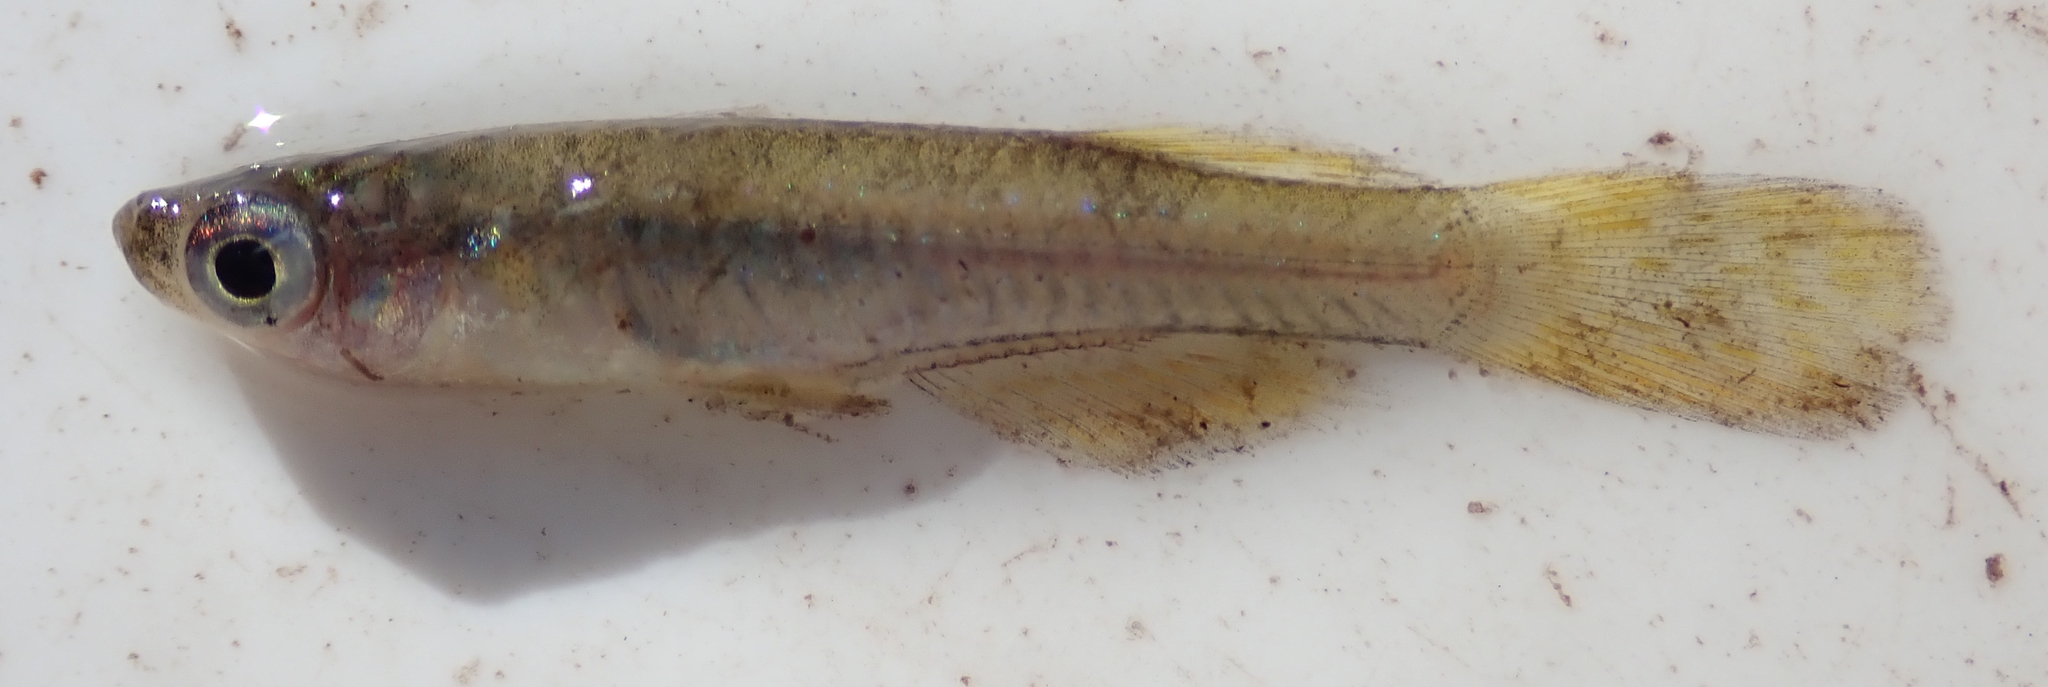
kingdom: Animalia
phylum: Chordata
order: Cyprinodontiformes
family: Poeciliidae
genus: Micropanchax
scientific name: Micropanchax johnstoni
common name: Johnston's topminnow
